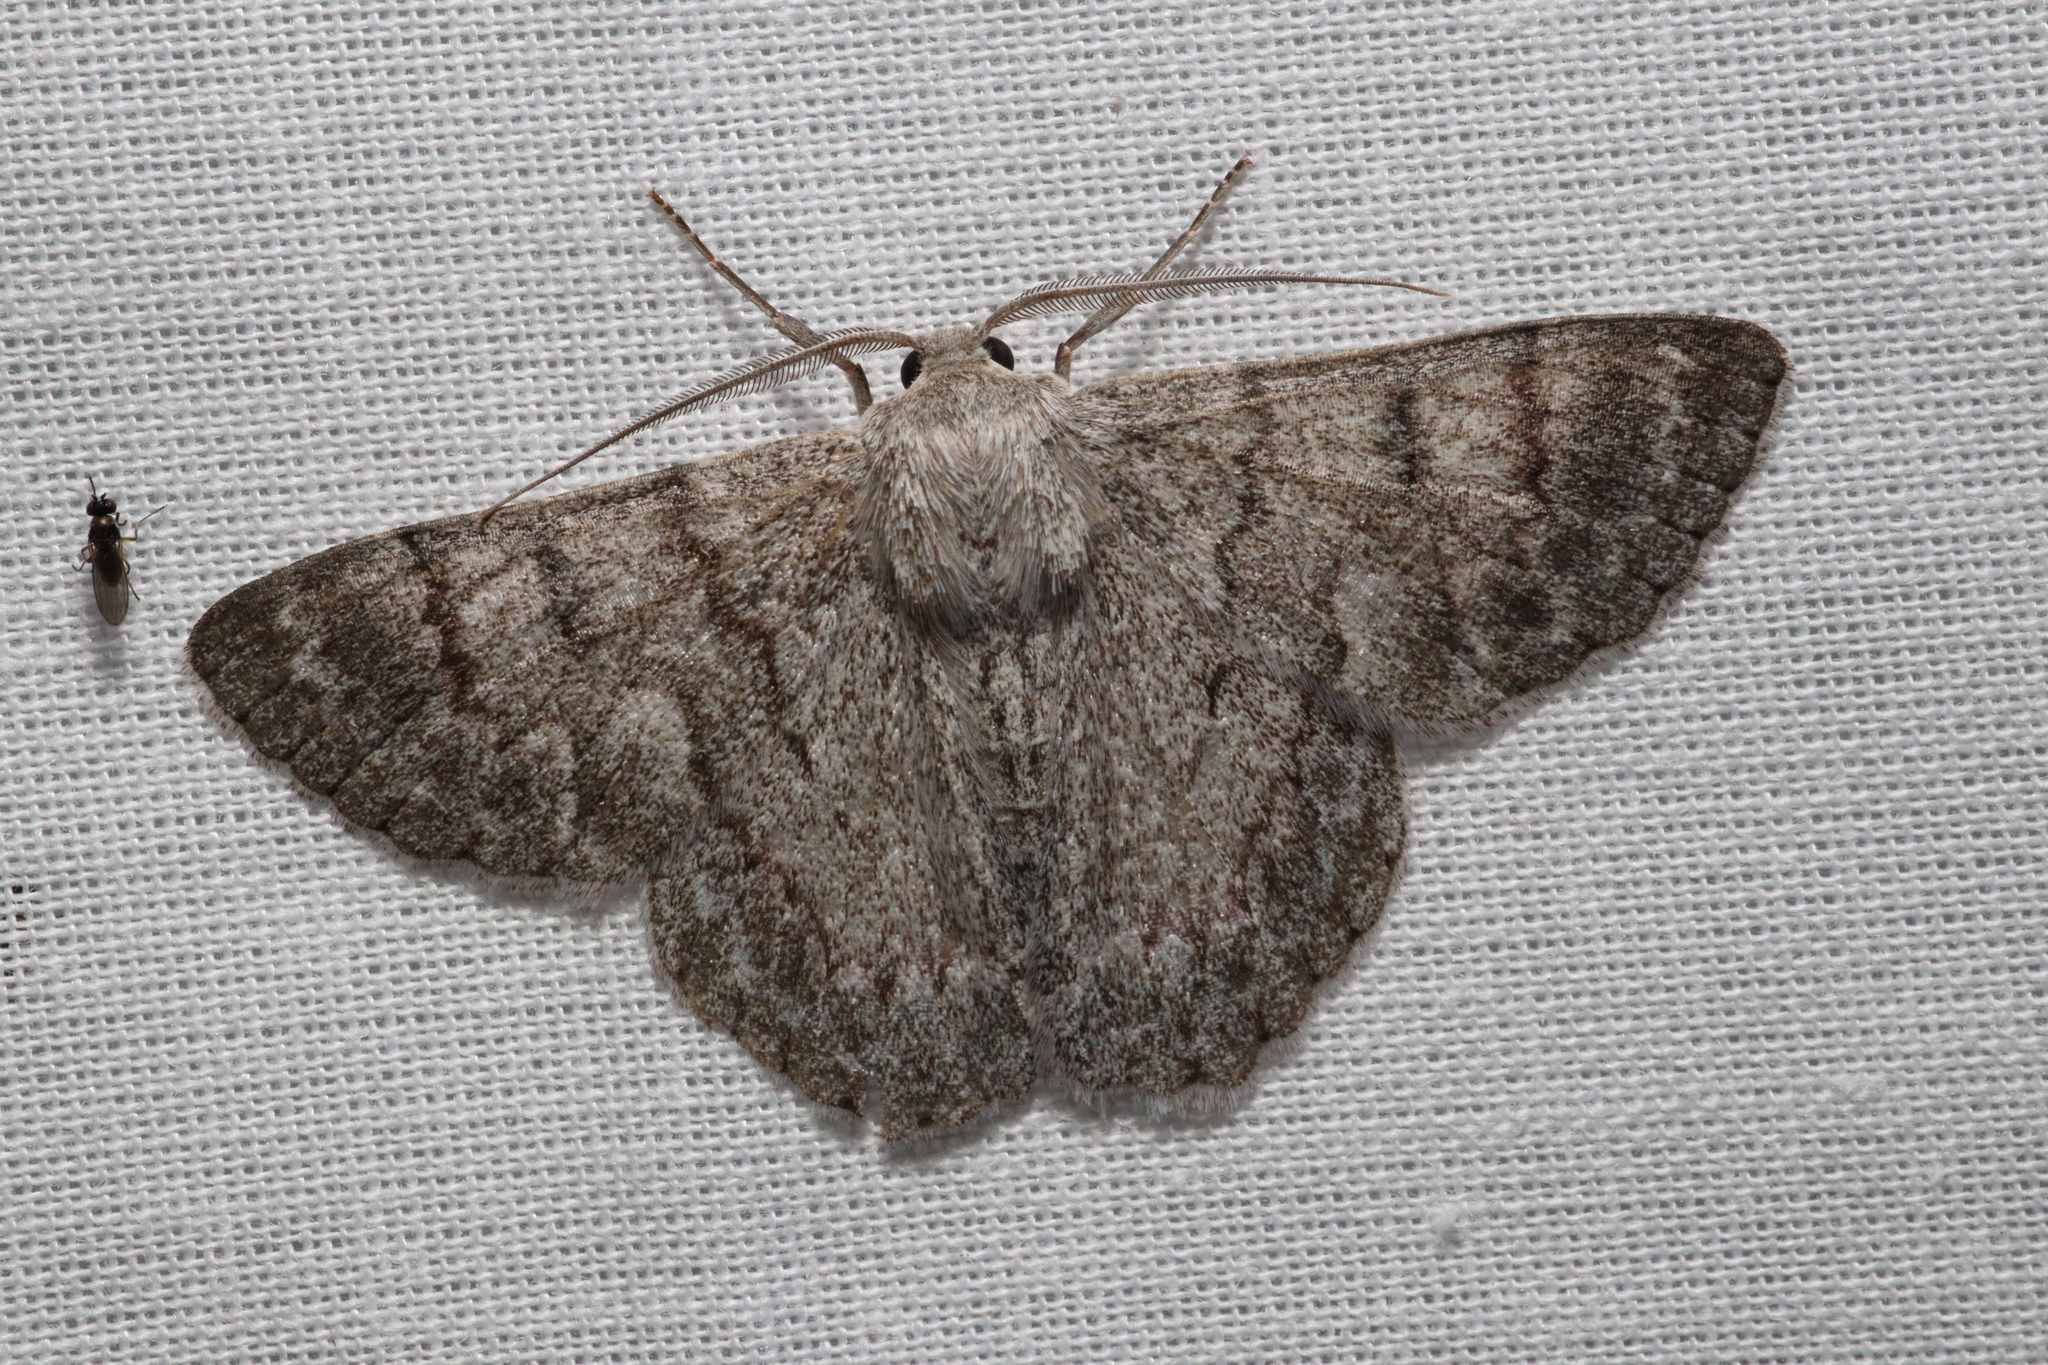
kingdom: Animalia
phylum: Arthropoda
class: Insecta
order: Lepidoptera
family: Geometridae
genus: Crypsiphona
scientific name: Crypsiphona ocultaria
